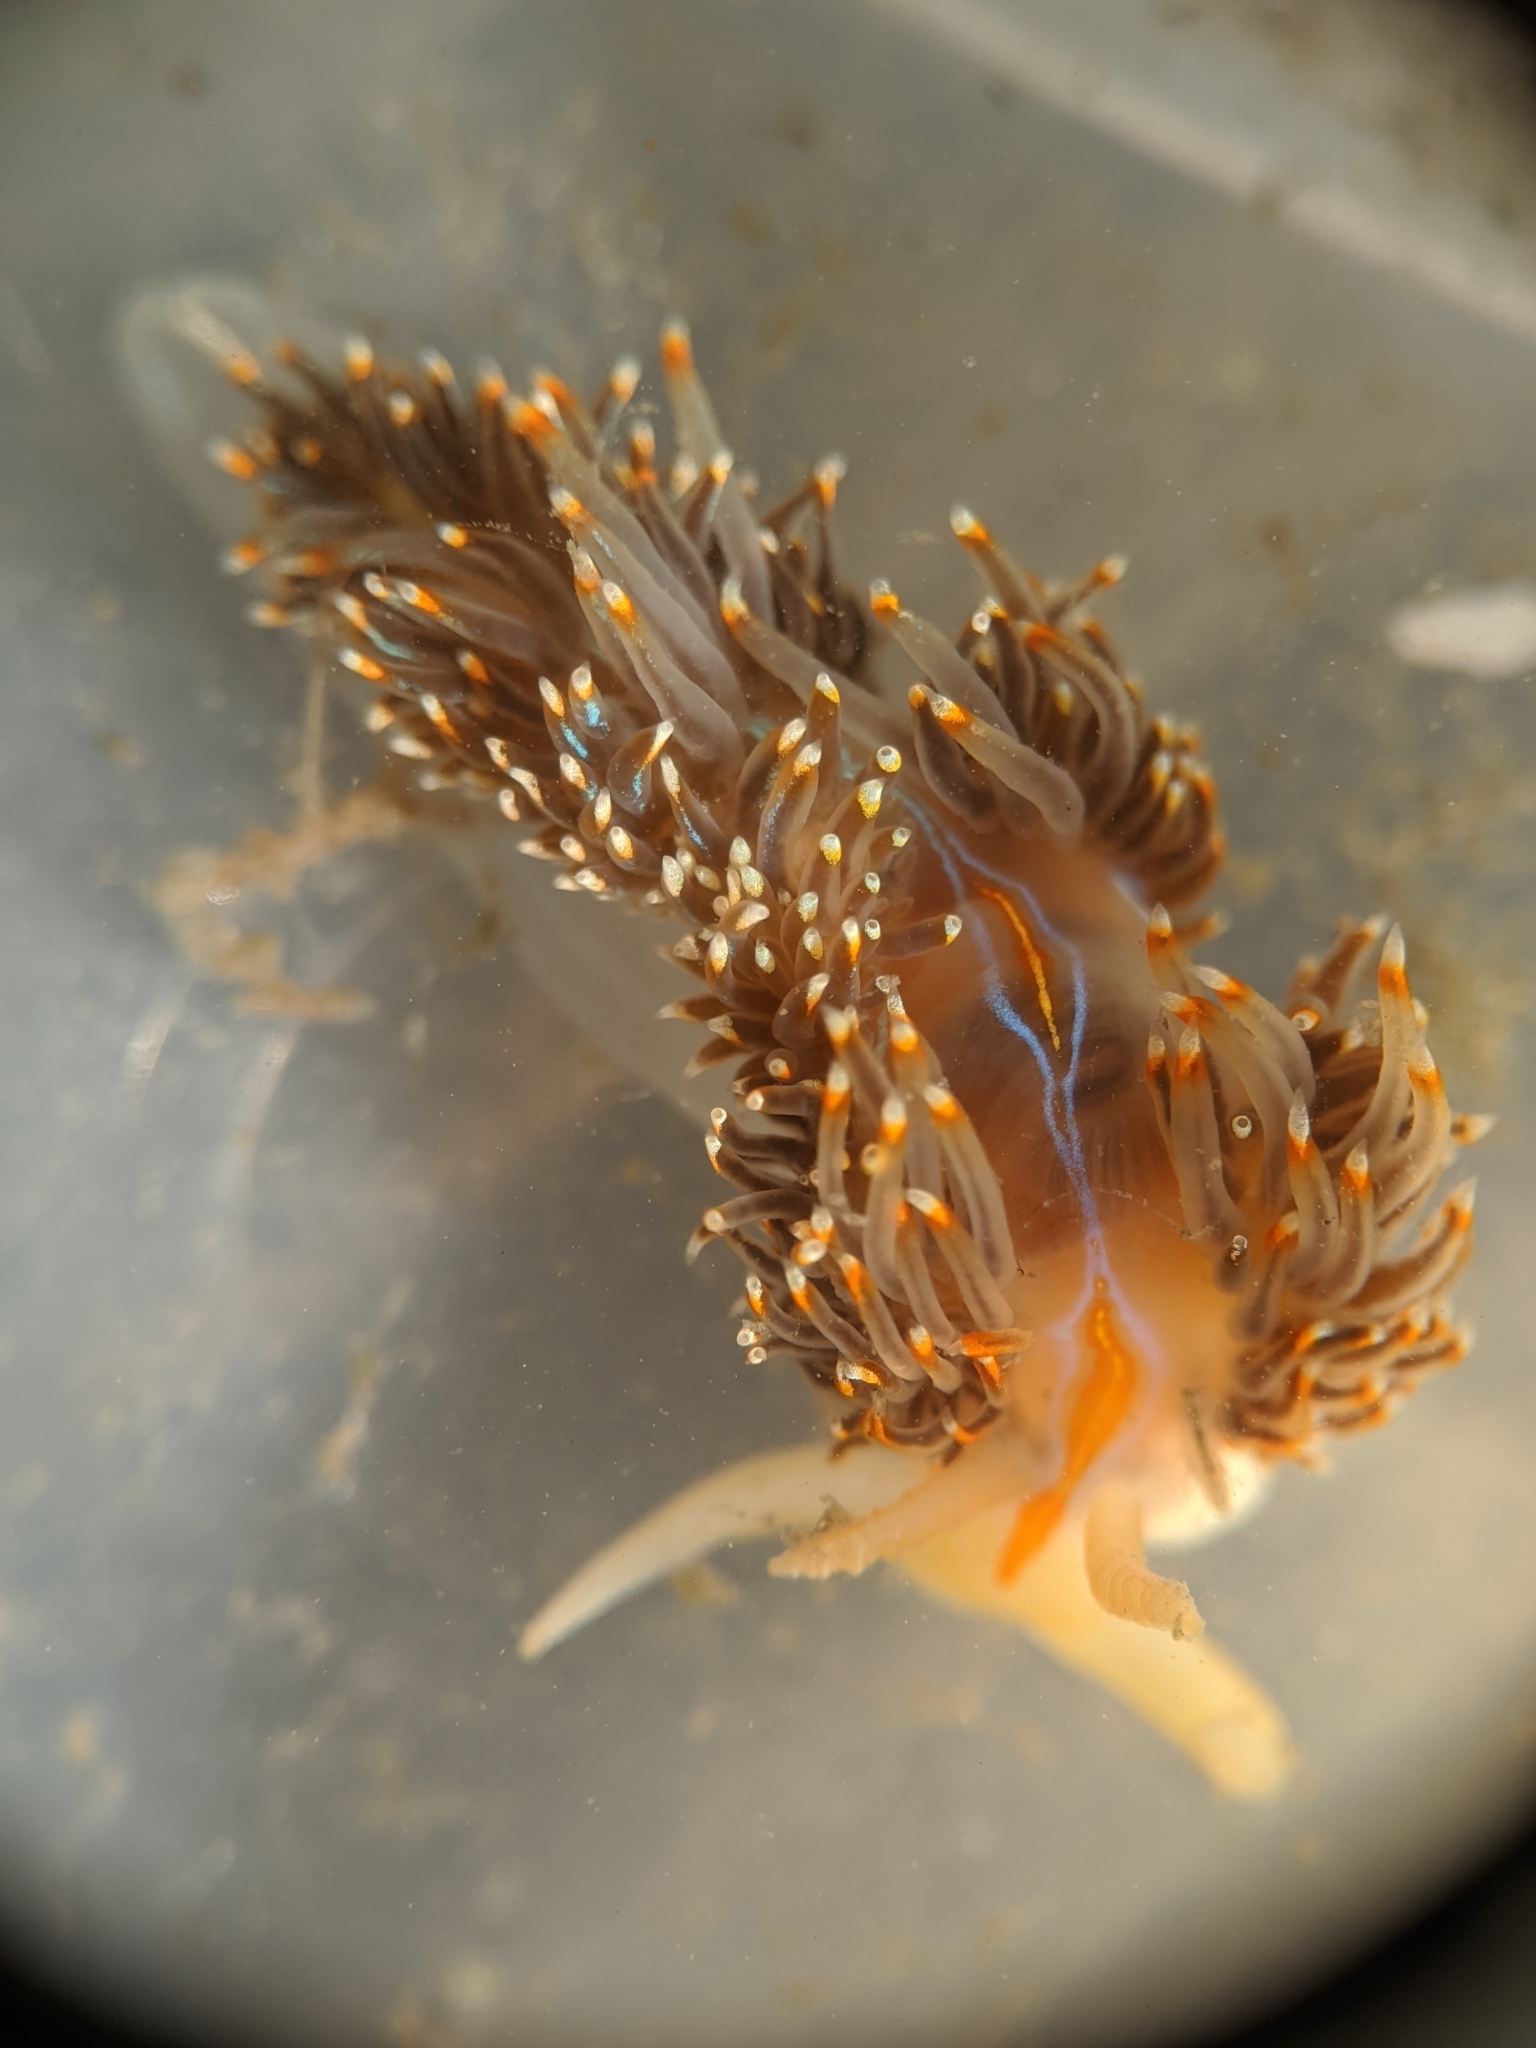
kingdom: Animalia
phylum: Mollusca
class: Gastropoda
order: Nudibranchia
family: Myrrhinidae
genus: Hermissenda
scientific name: Hermissenda opalescens
